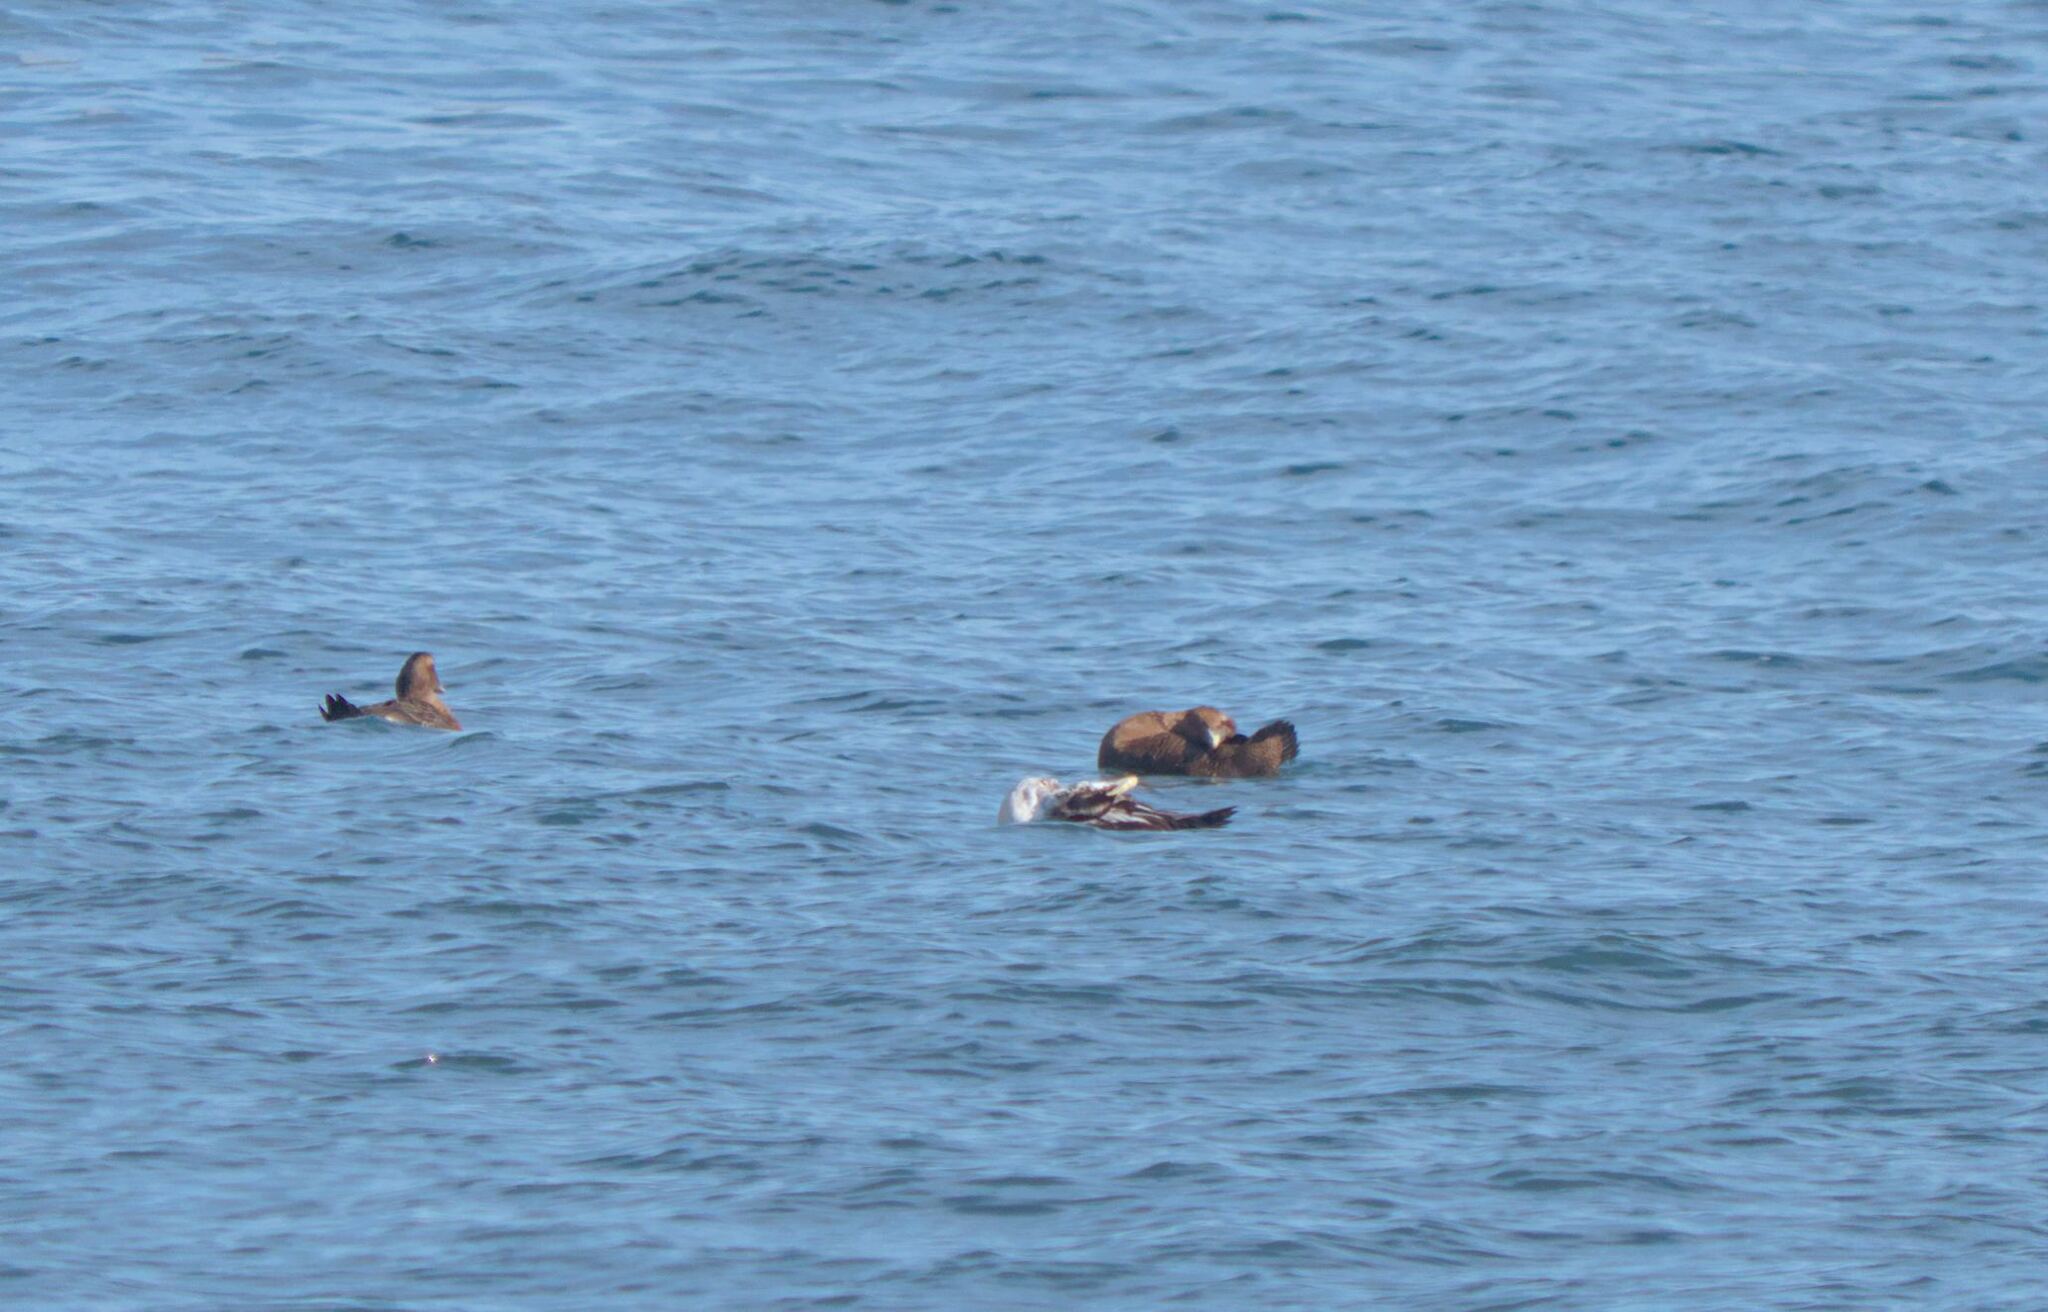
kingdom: Animalia
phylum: Chordata
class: Aves
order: Anseriformes
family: Anatidae
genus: Somateria
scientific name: Somateria mollissima
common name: Common eider
